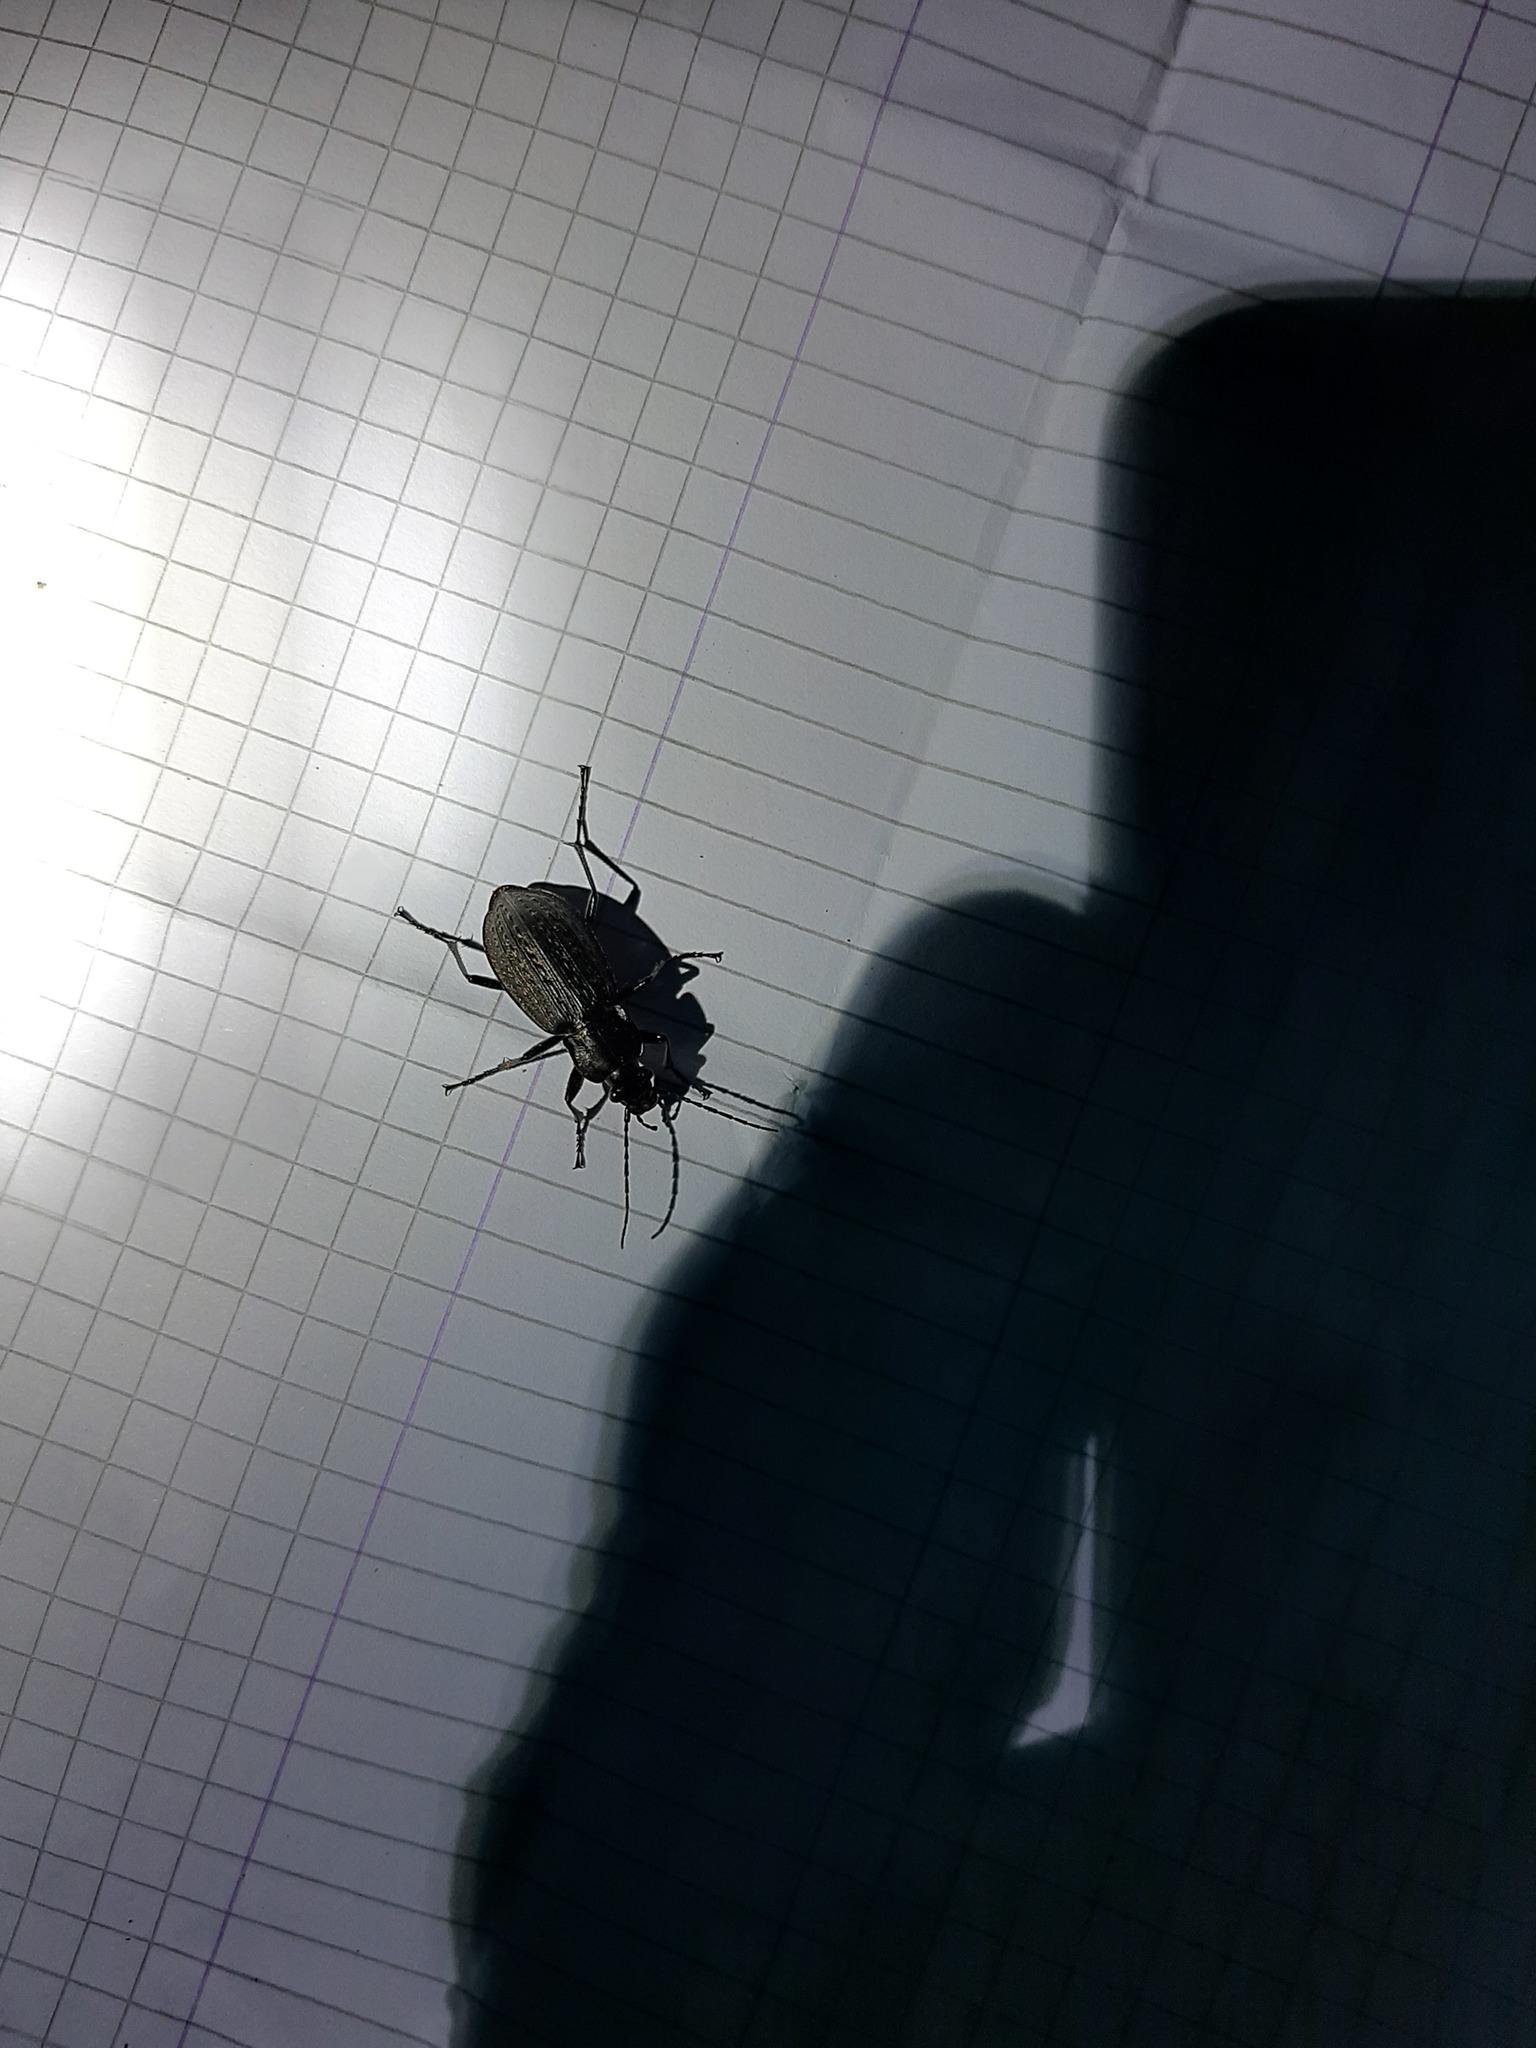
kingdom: Animalia
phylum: Arthropoda
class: Insecta
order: Coleoptera
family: Carabidae
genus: Carabus
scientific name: Carabus granulatus
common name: Granulate ground beetle
